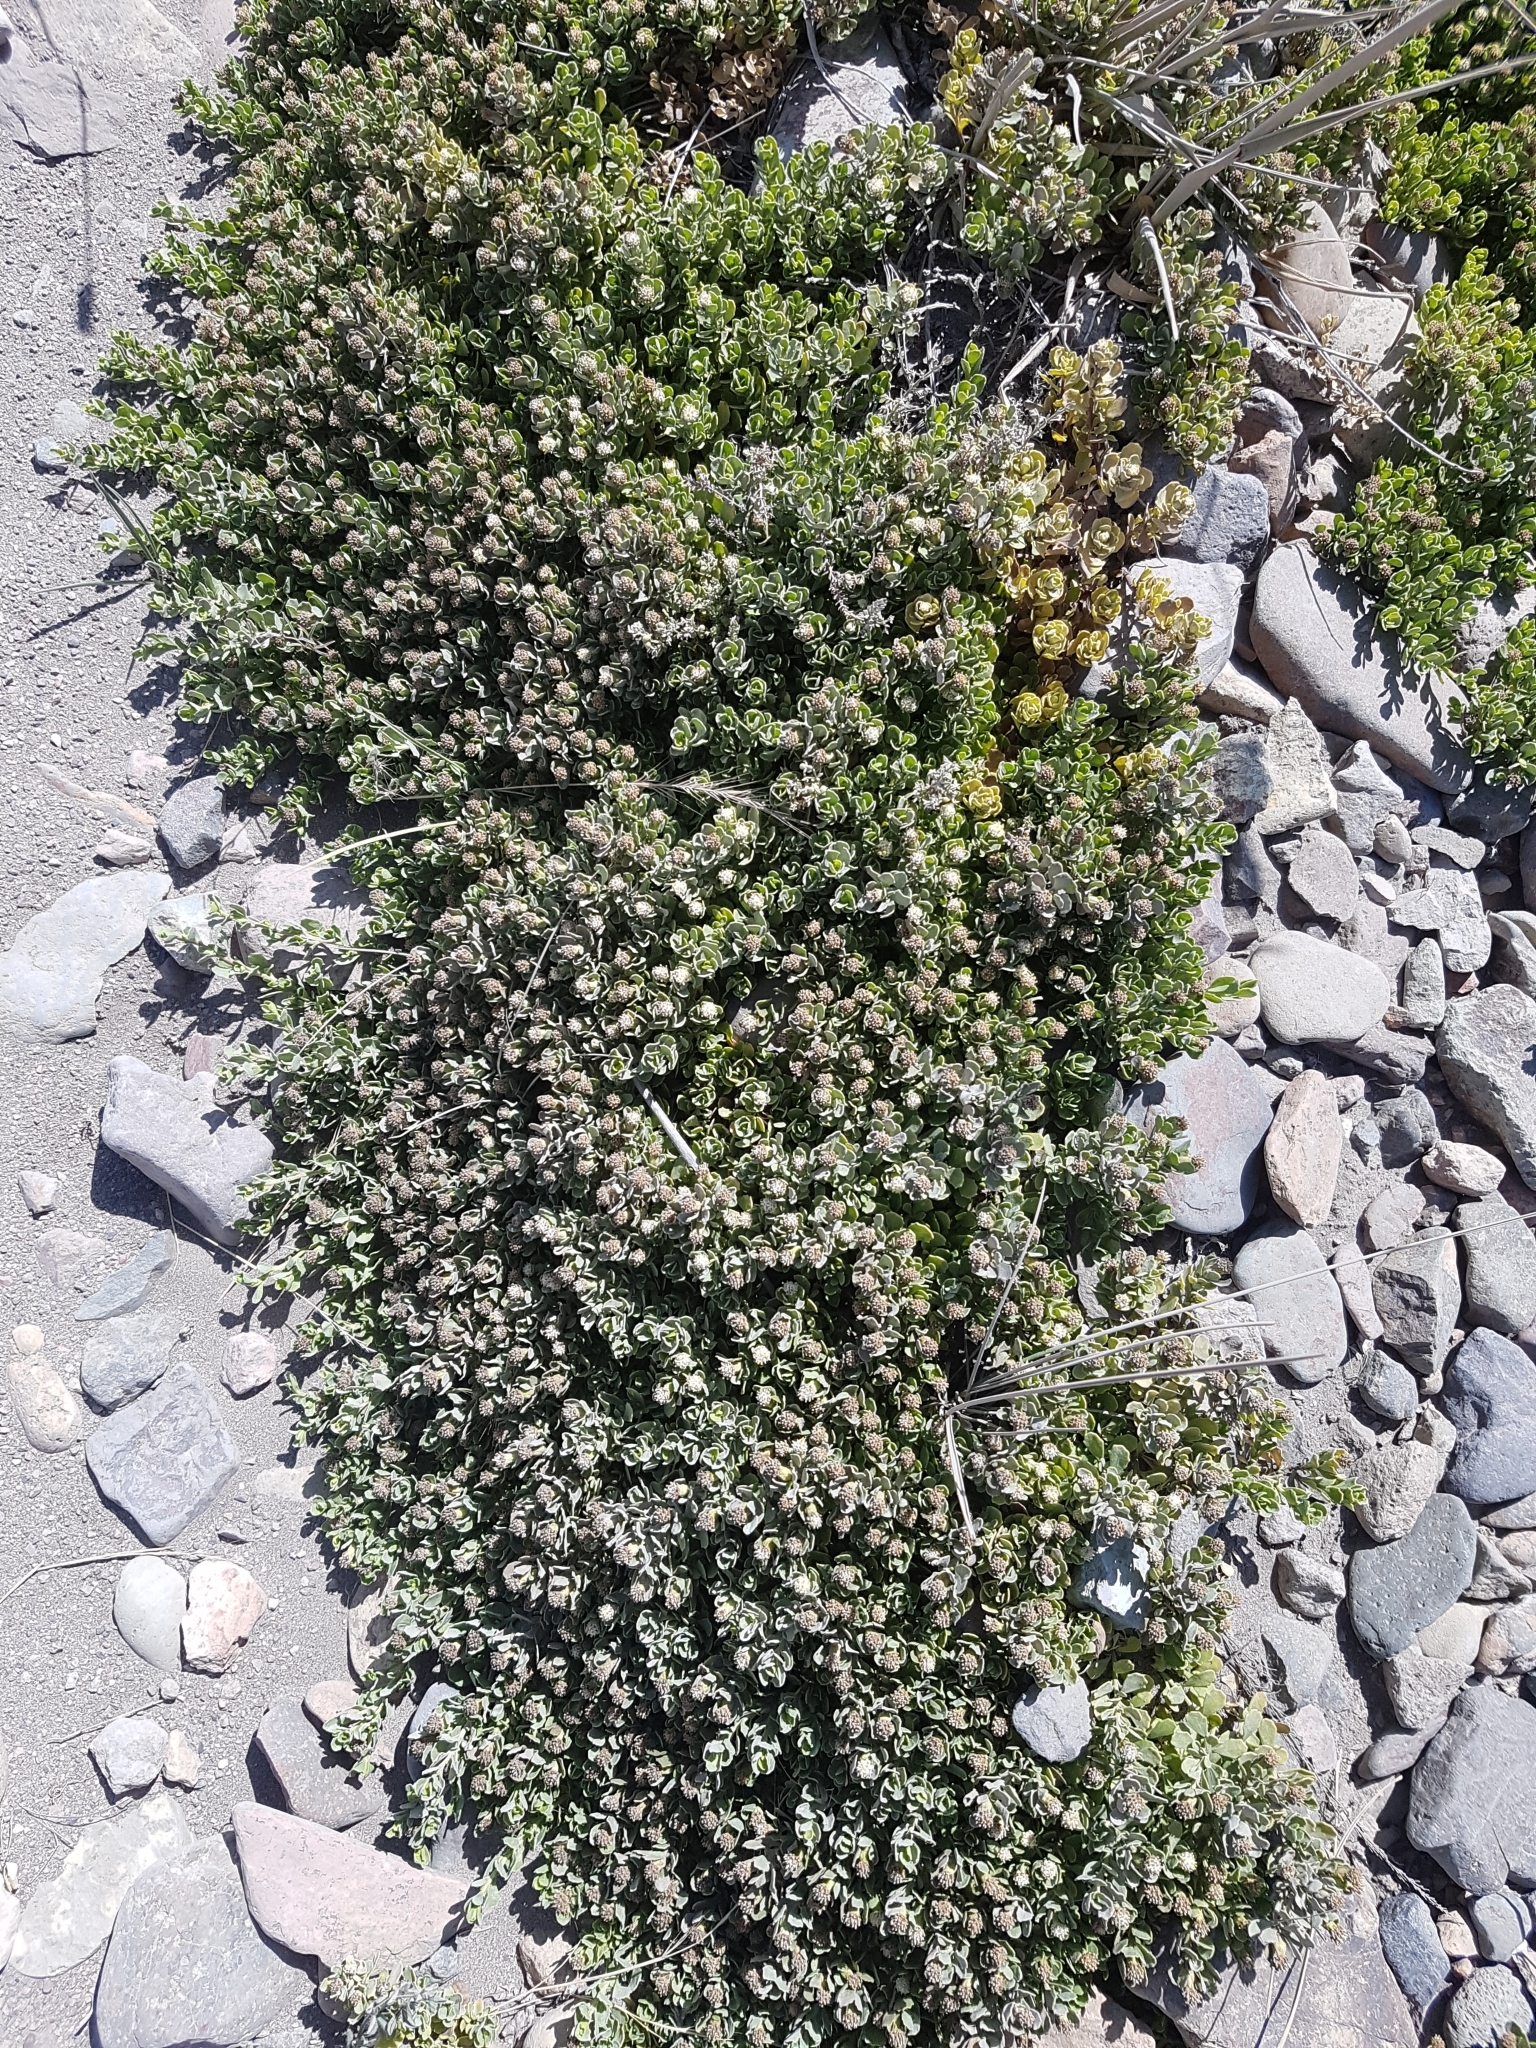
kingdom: Plantae
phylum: Tracheophyta
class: Magnoliopsida
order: Asterales
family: Asteraceae
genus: Baccharis
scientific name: Baccharis magellanica
